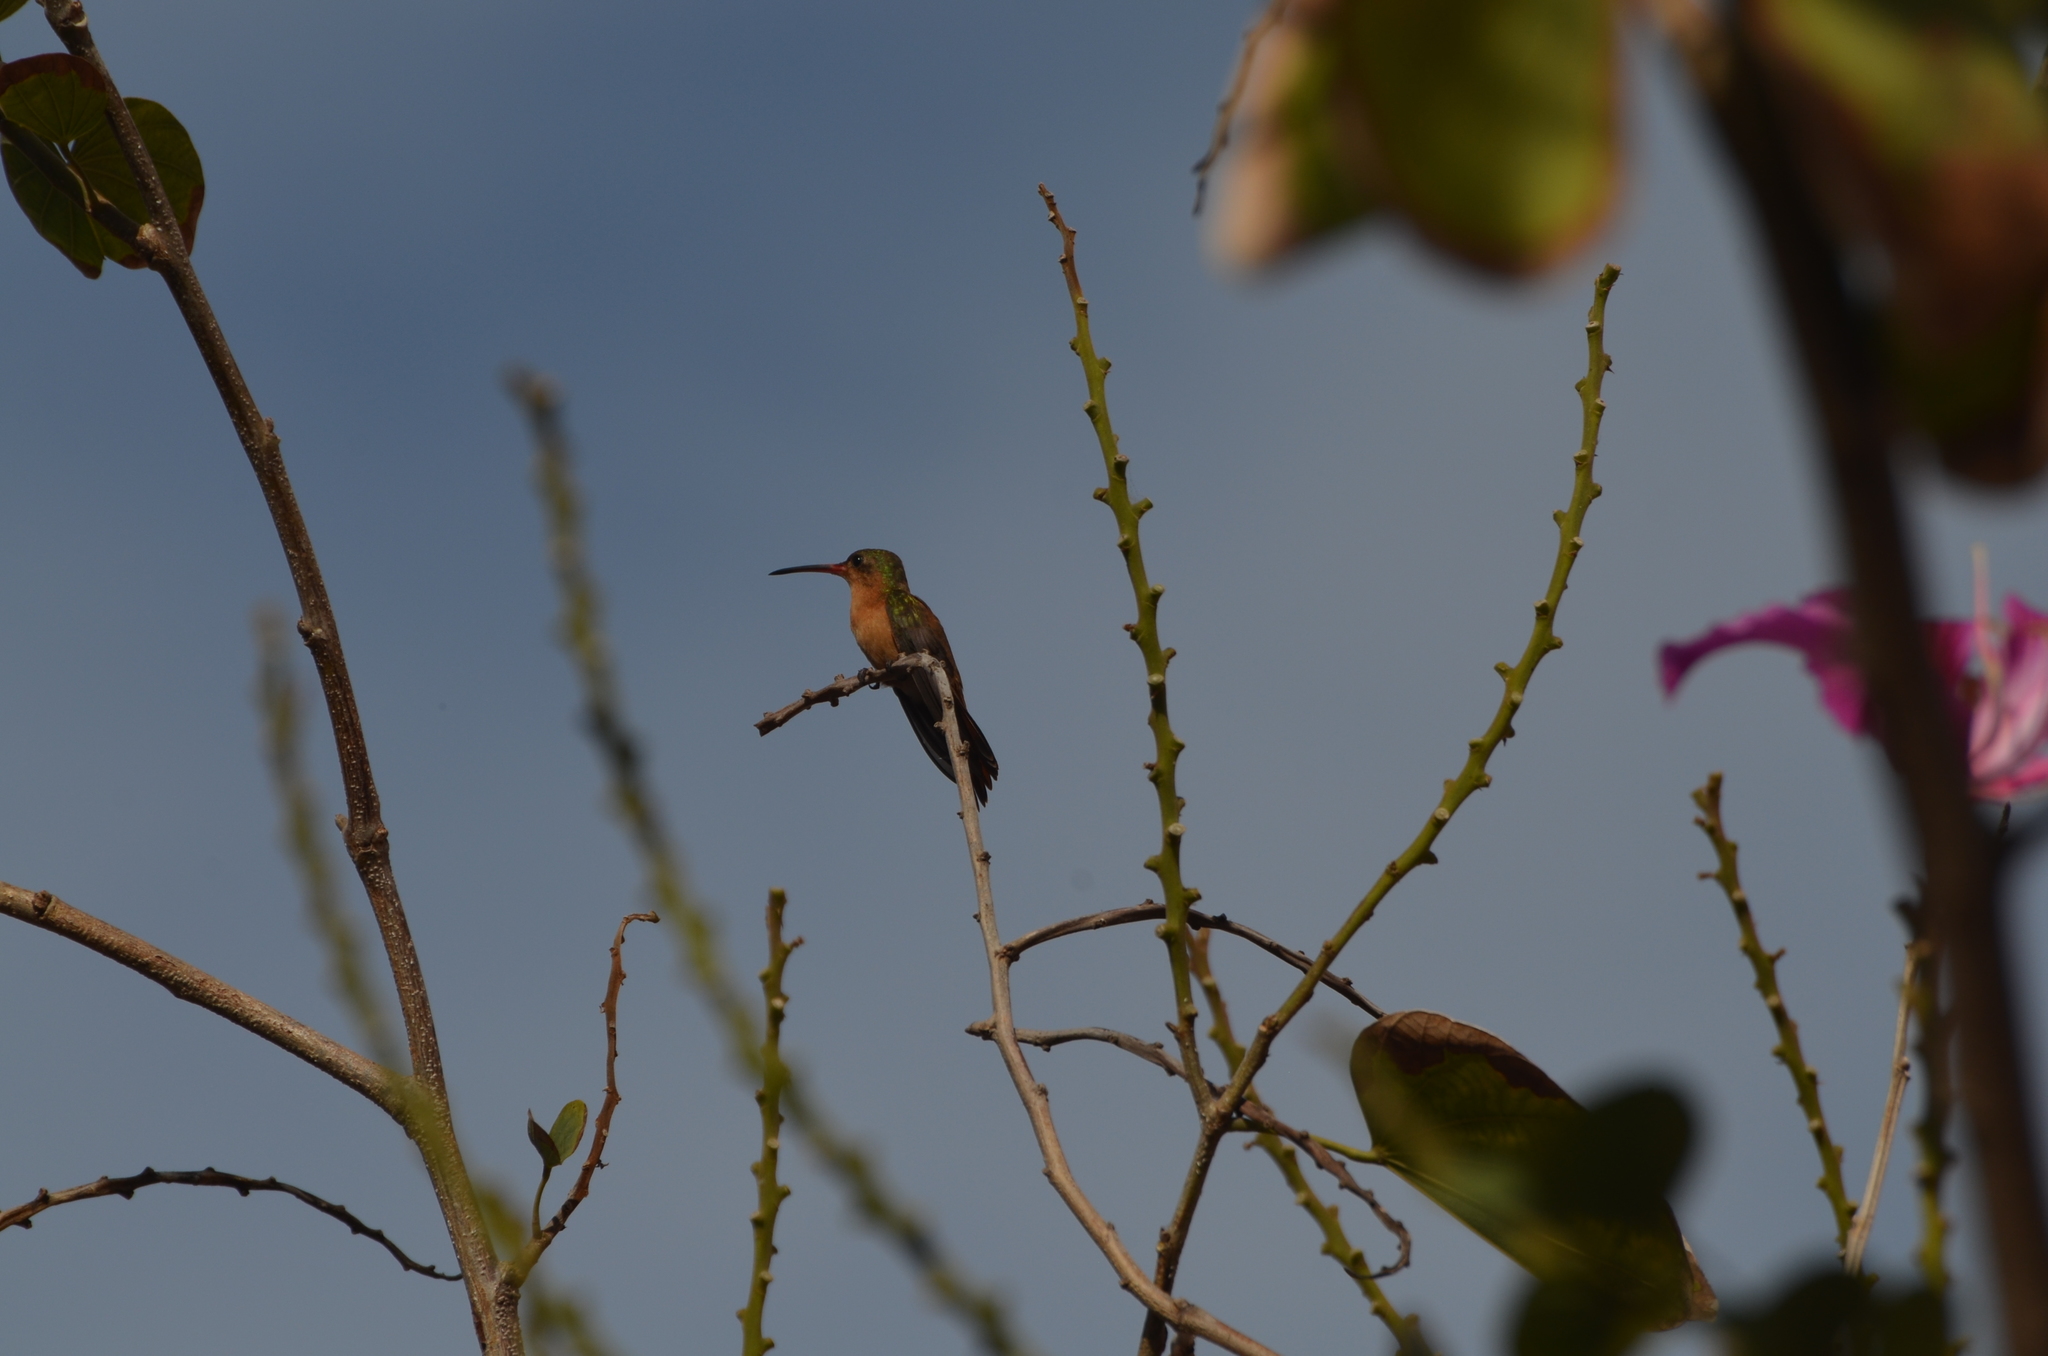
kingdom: Animalia
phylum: Chordata
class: Aves
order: Apodiformes
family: Trochilidae
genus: Amazilia
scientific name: Amazilia rutila
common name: Cinnamon hummingbird
